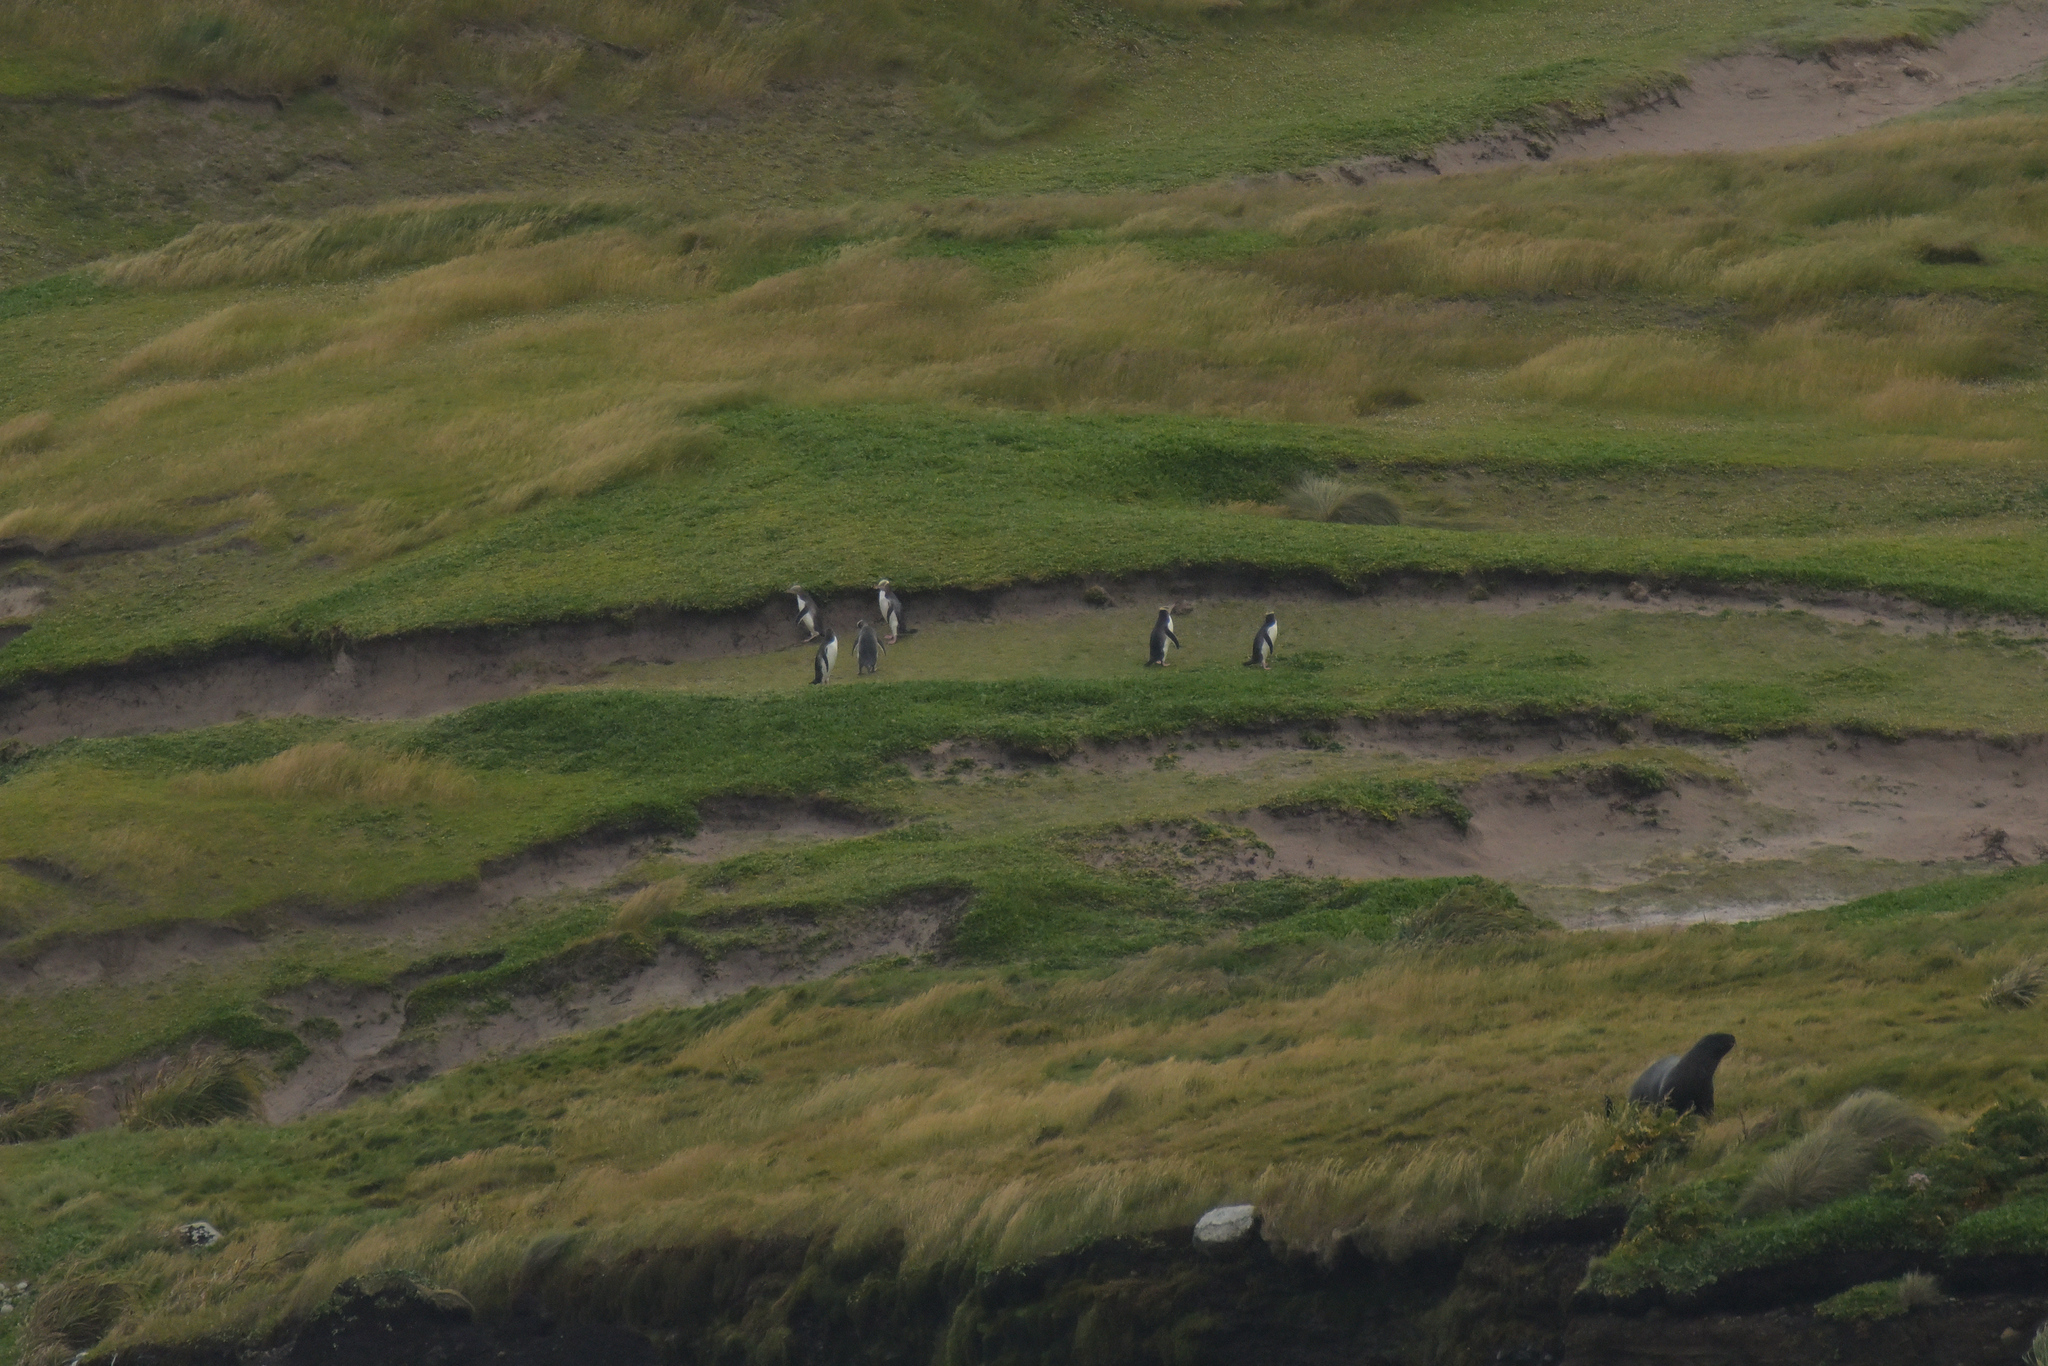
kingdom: Animalia
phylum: Chordata
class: Aves
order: Sphenisciformes
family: Spheniscidae
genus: Megadyptes
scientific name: Megadyptes antipodes
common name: Yellow-eyed penguin
